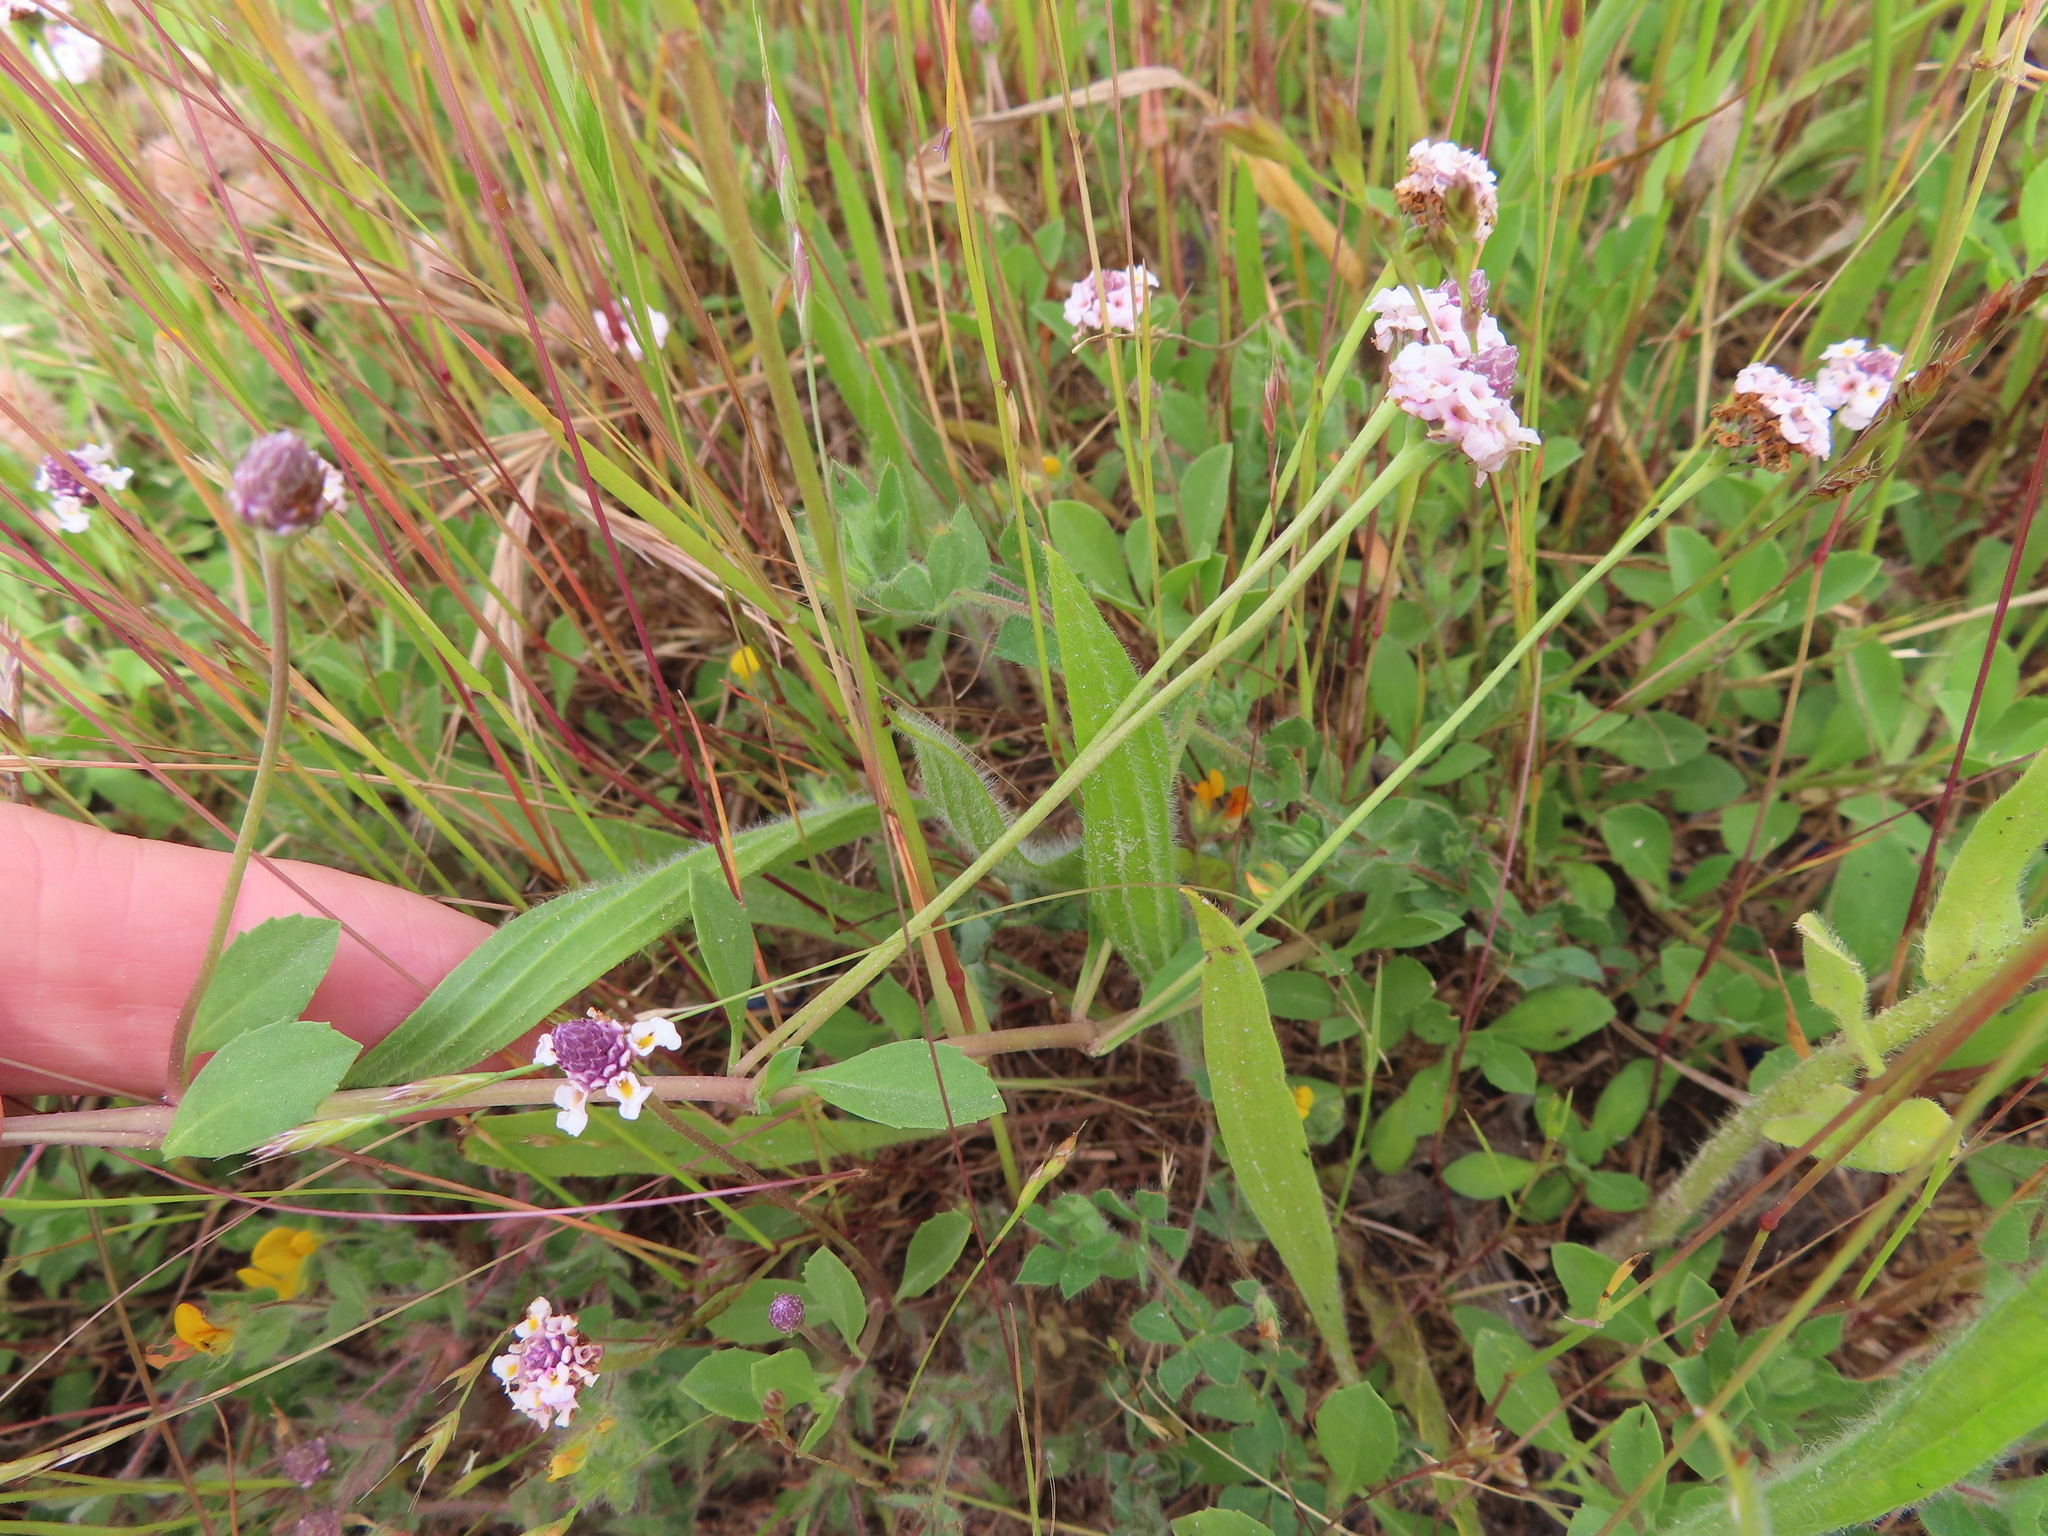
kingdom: Plantae
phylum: Tracheophyta
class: Magnoliopsida
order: Lamiales
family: Verbenaceae
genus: Phyla
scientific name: Phyla nodiflora
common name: Frogfruit
